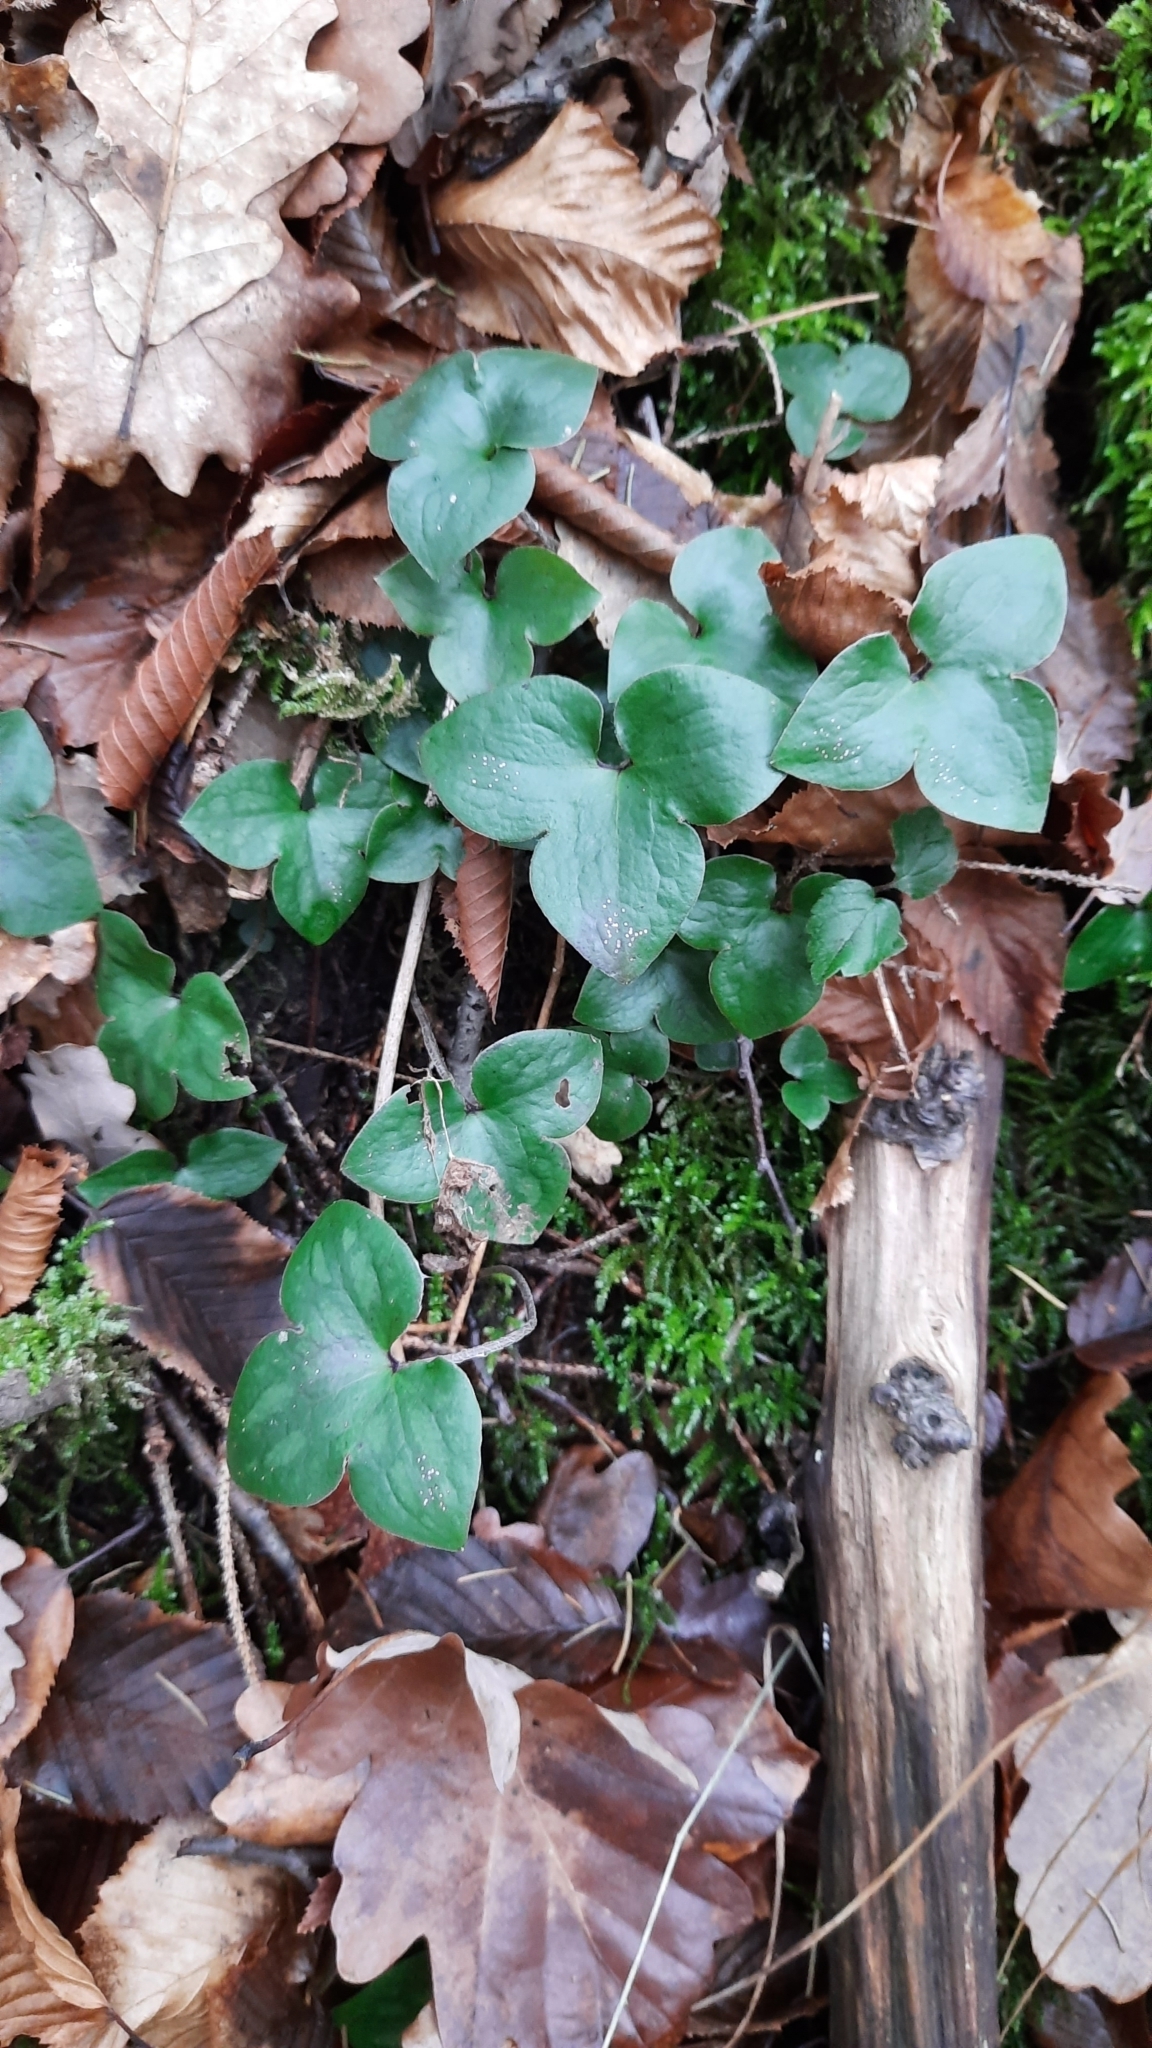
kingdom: Plantae
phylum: Tracheophyta
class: Magnoliopsida
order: Ranunculales
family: Ranunculaceae
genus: Hepatica
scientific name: Hepatica nobilis
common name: Liverleaf
